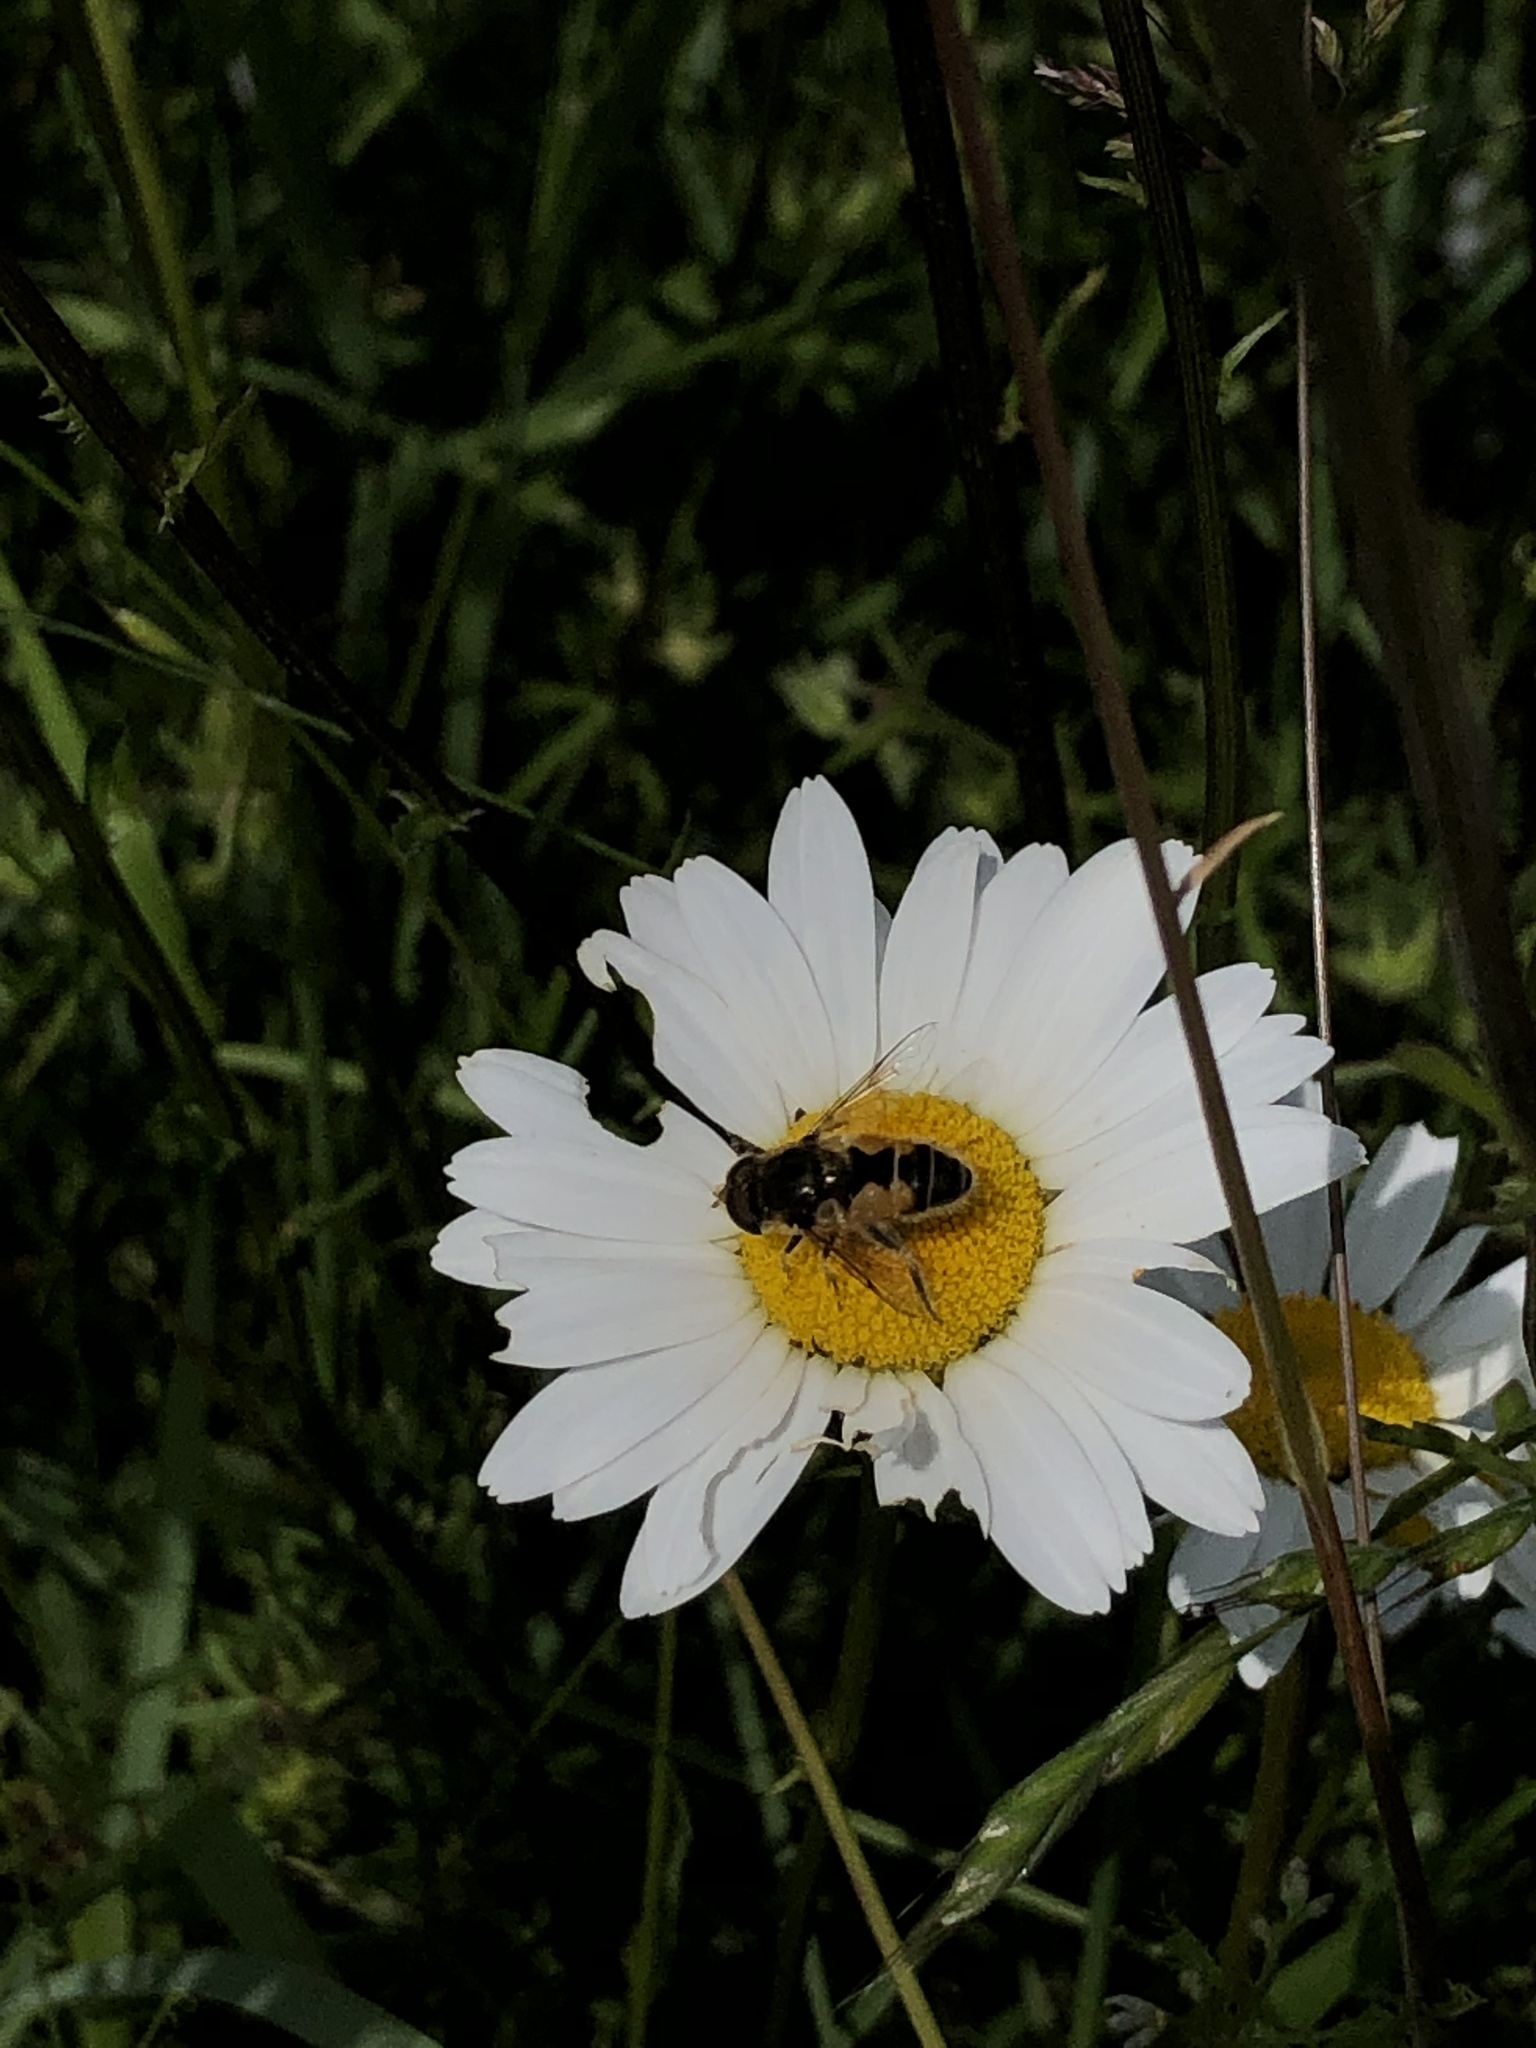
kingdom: Animalia
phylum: Arthropoda
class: Insecta
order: Diptera
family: Syrphidae
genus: Eristalis
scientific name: Eristalis arbustorum
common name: Hover fly
